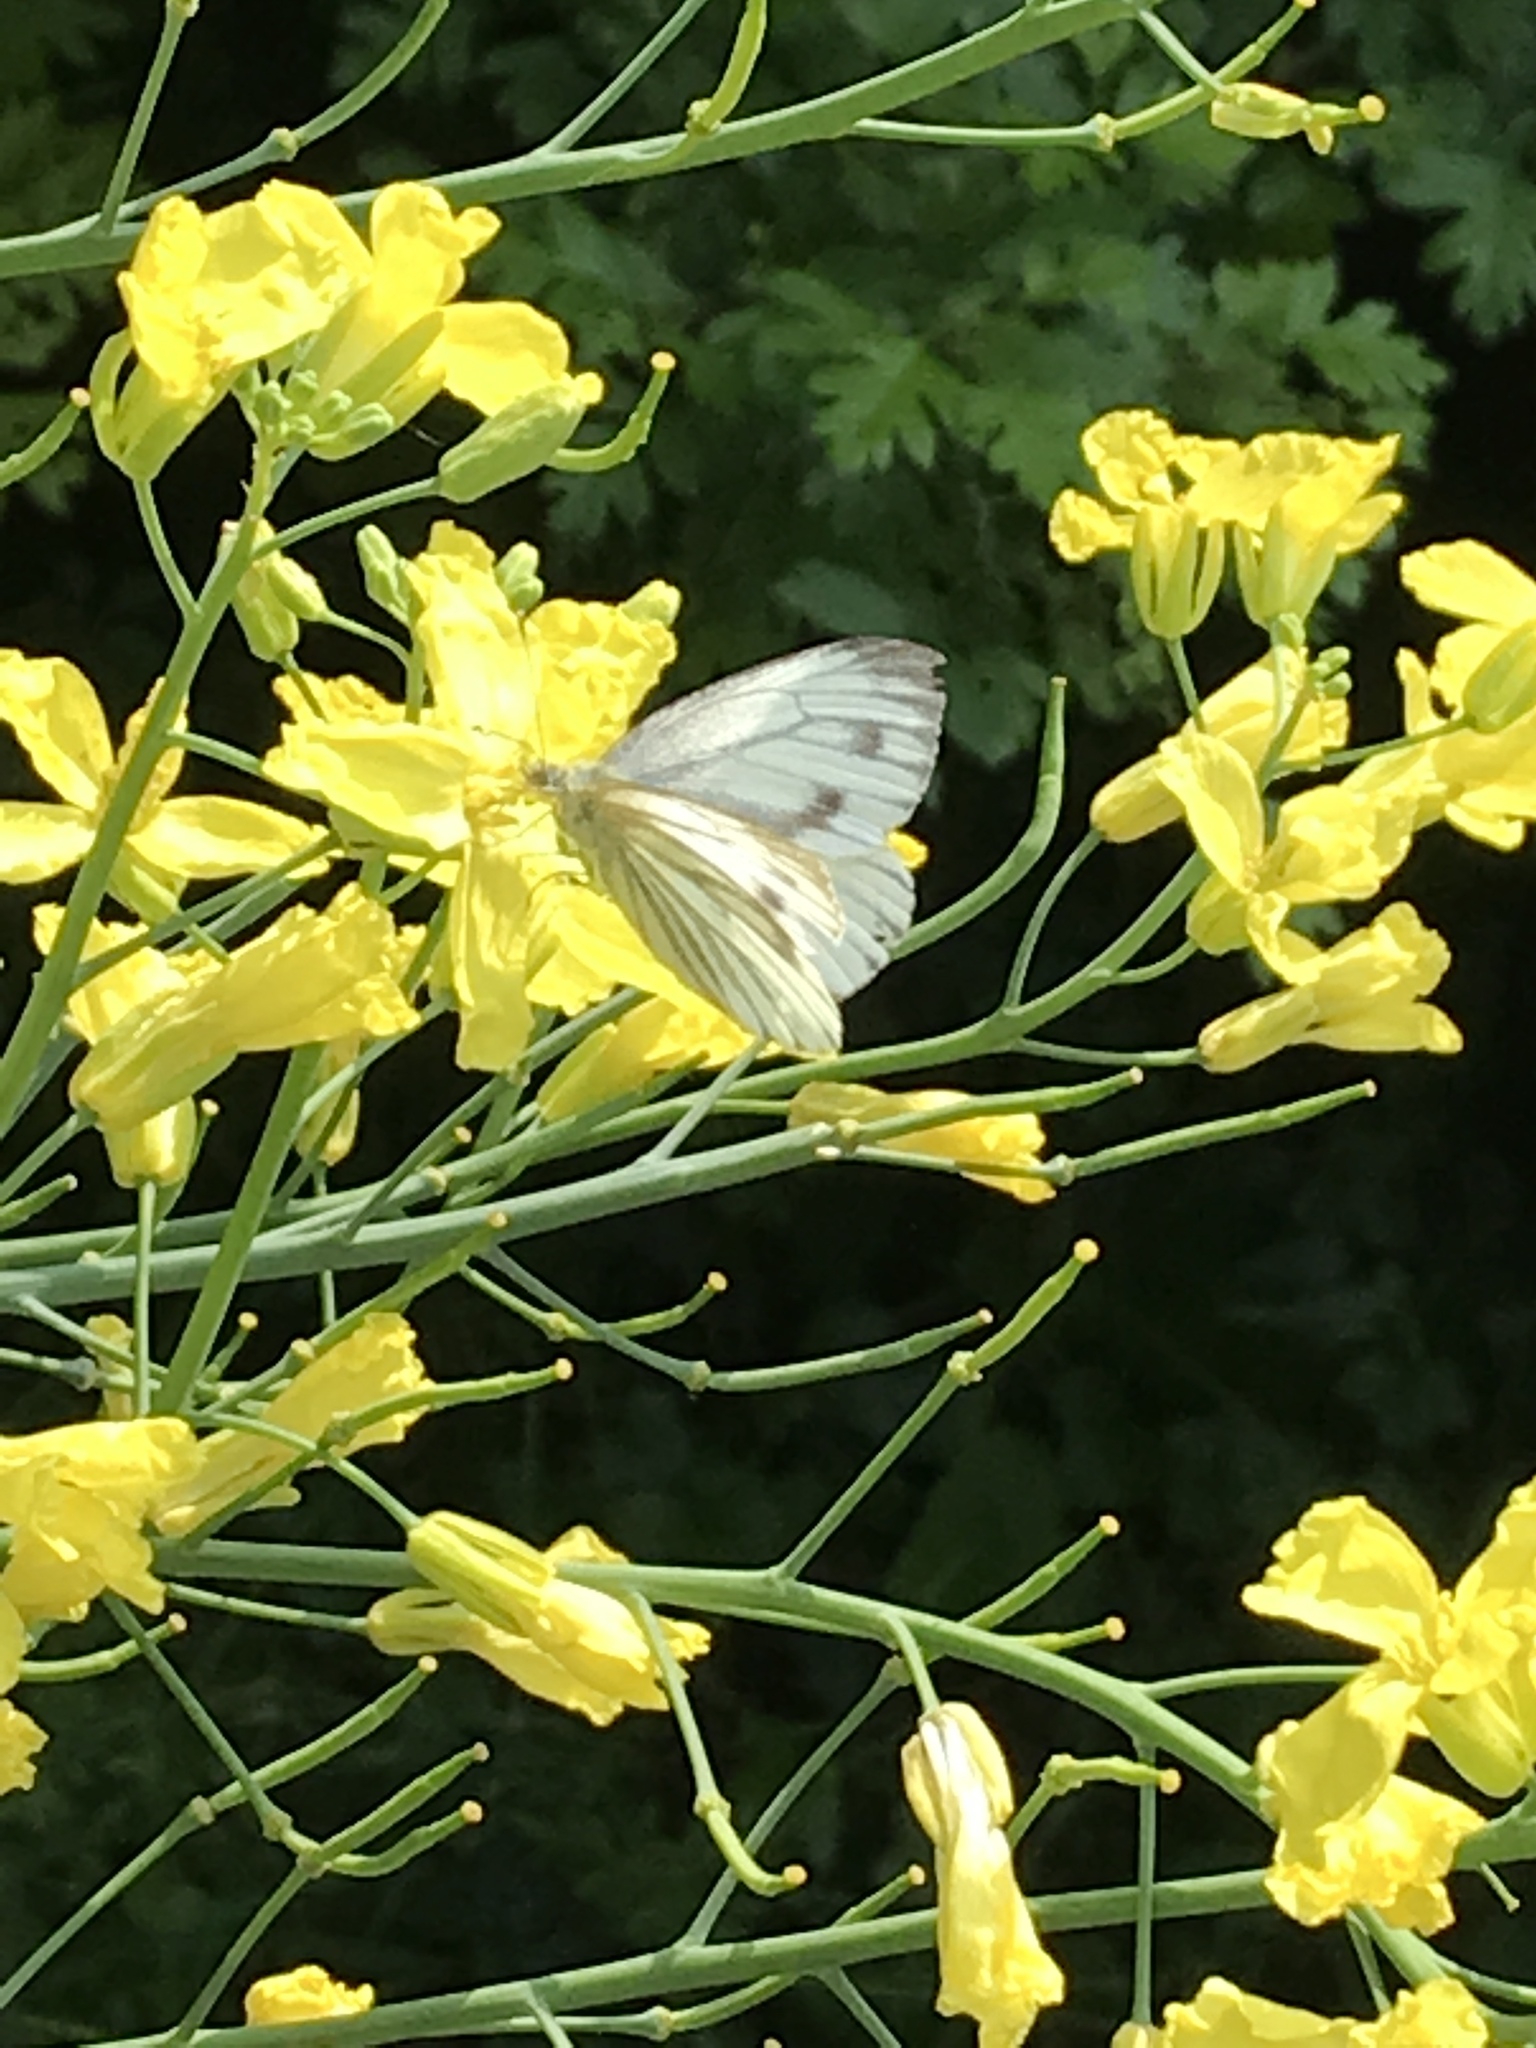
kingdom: Animalia
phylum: Arthropoda
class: Insecta
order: Lepidoptera
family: Pieridae
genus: Pieris
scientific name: Pieris napi
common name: Green-veined white
